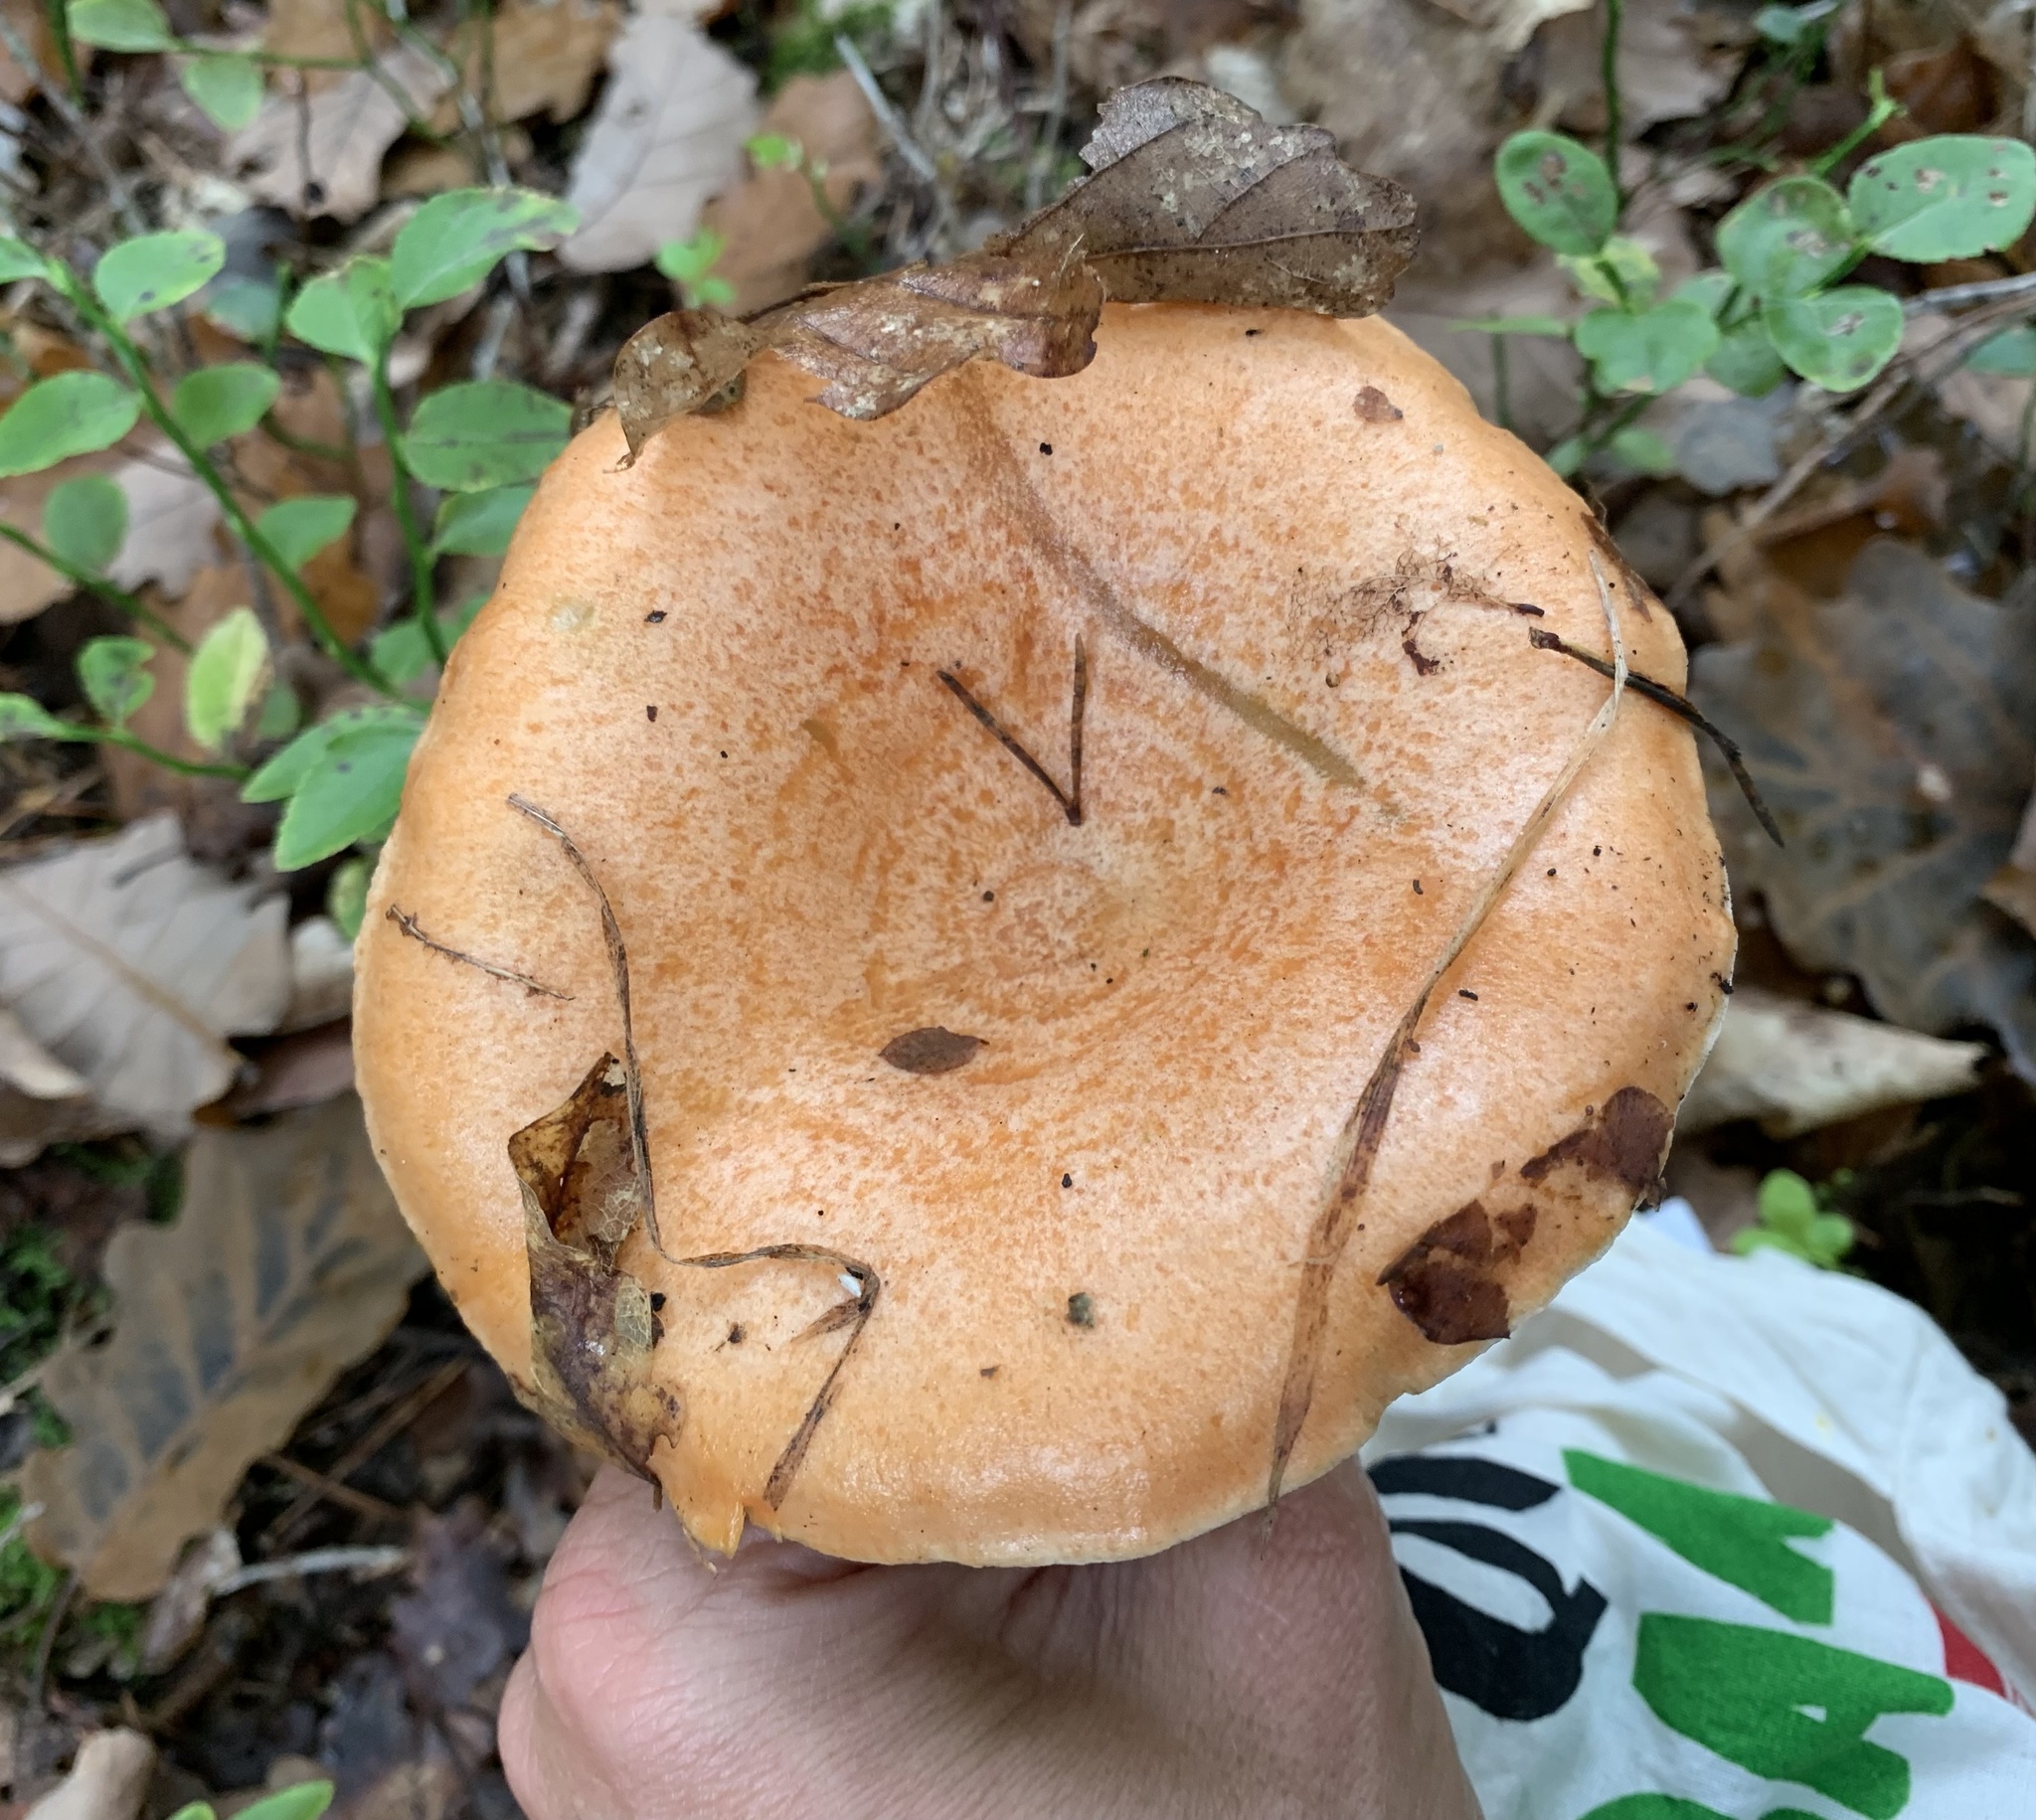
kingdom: Fungi
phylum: Basidiomycota
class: Agaricomycetes
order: Russulales
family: Russulaceae
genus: Lactarius
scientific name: Lactarius salmonicolor
